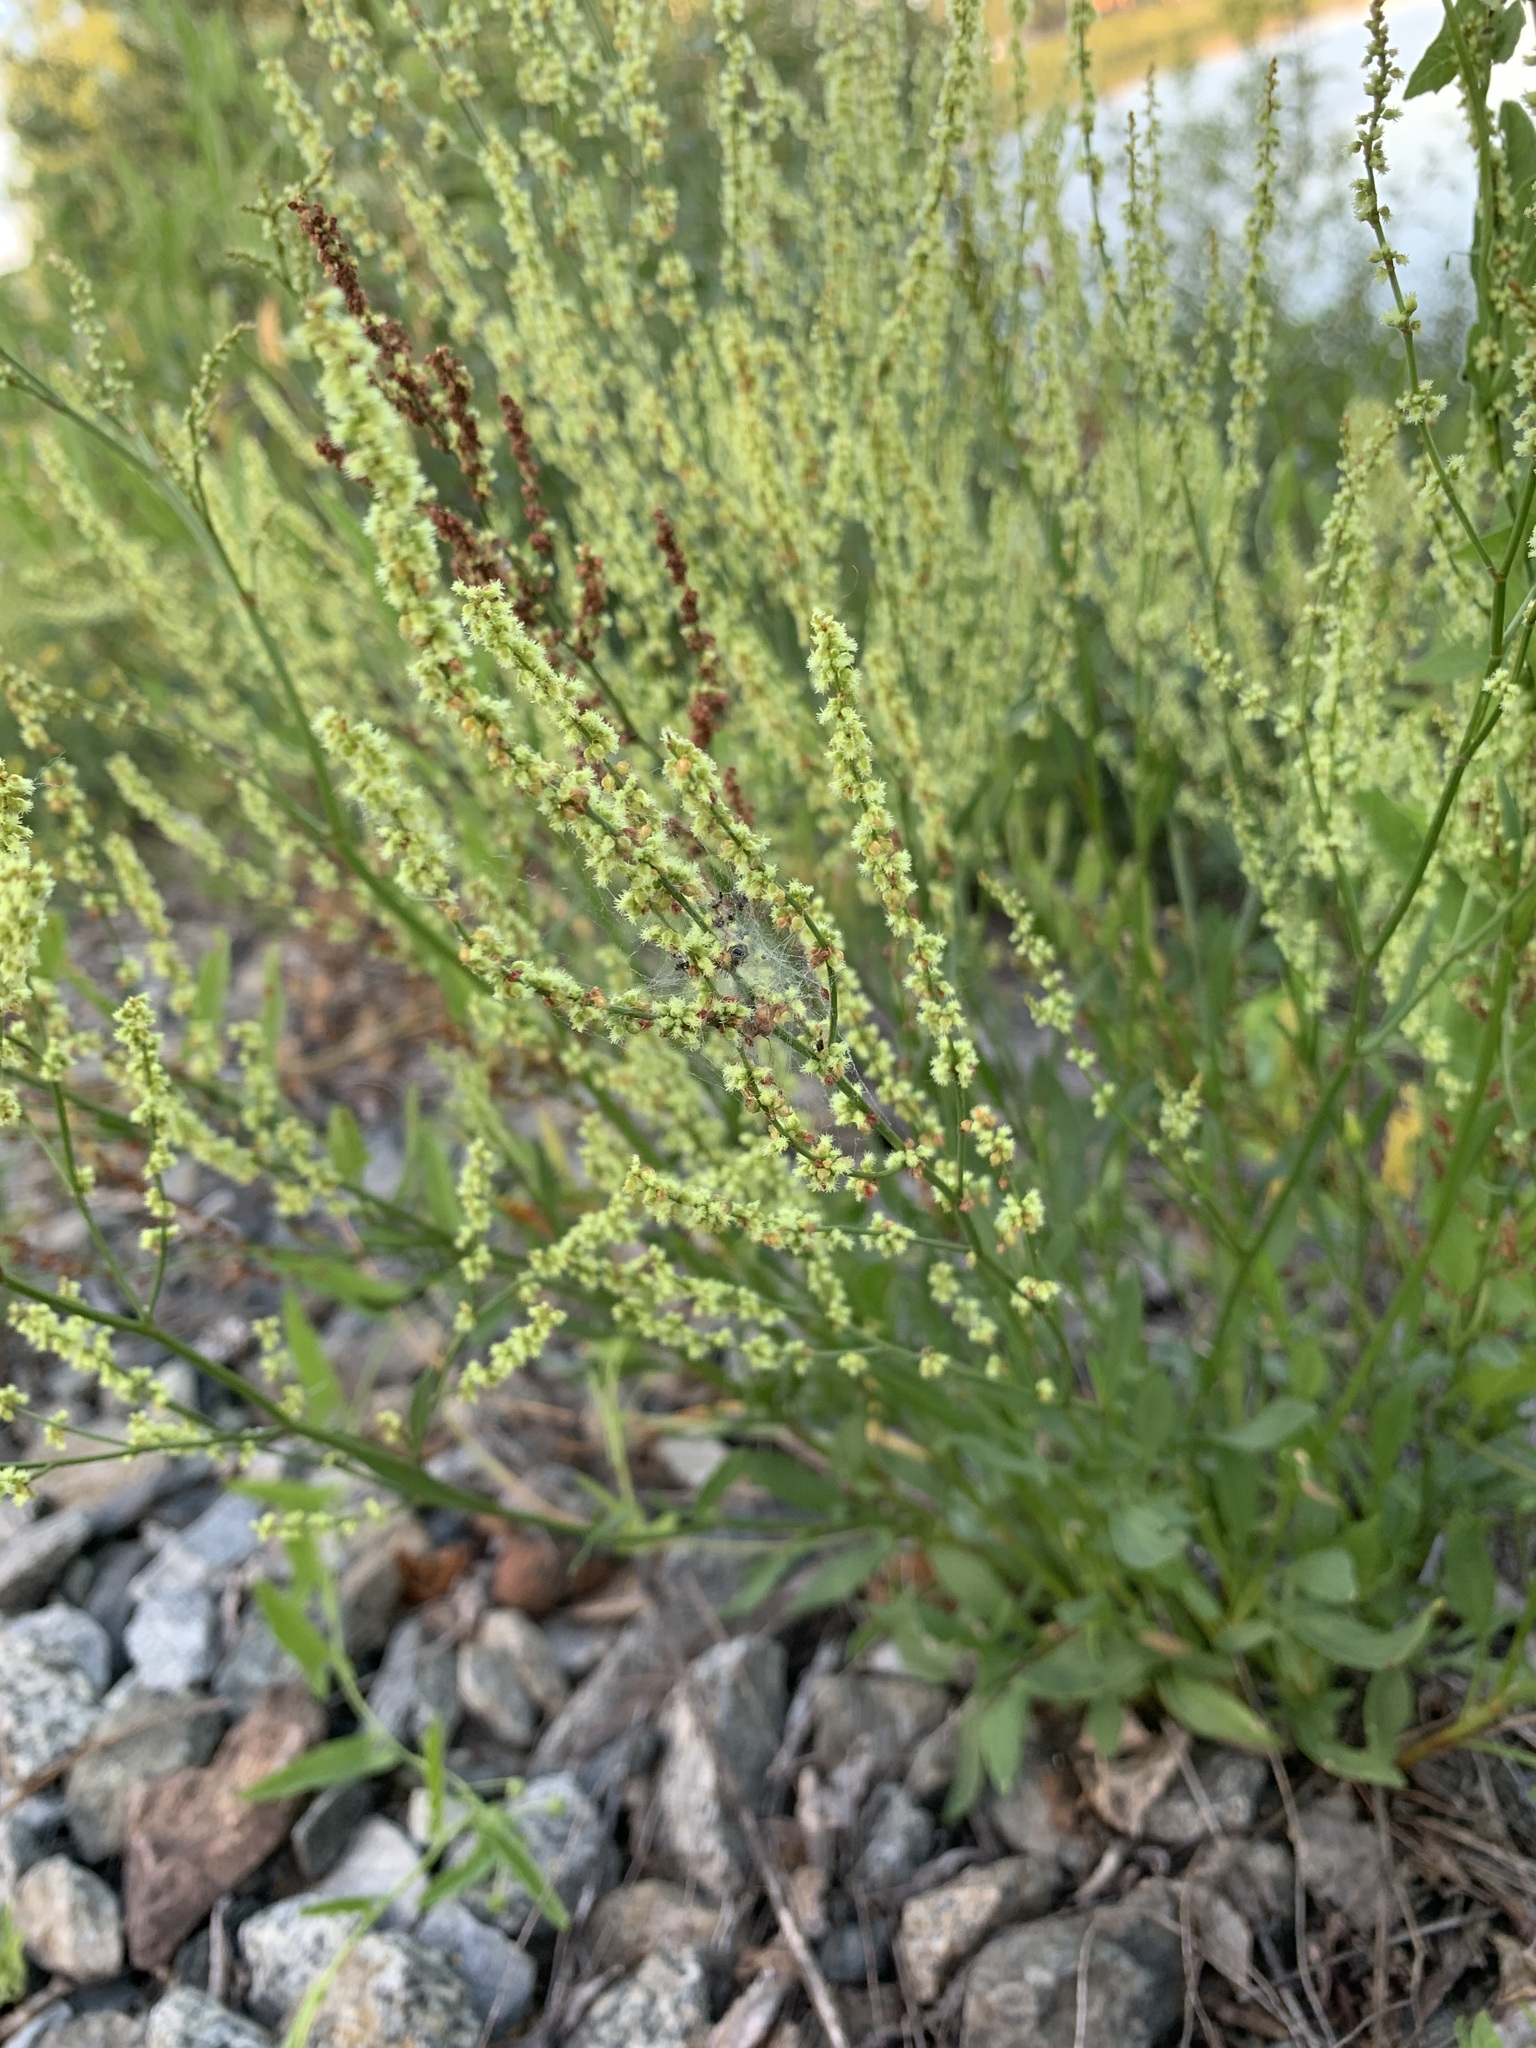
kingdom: Plantae
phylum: Tracheophyta
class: Magnoliopsida
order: Caryophyllales
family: Polygonaceae
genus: Rumex
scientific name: Rumex acetosella
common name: Common sheep sorrel
